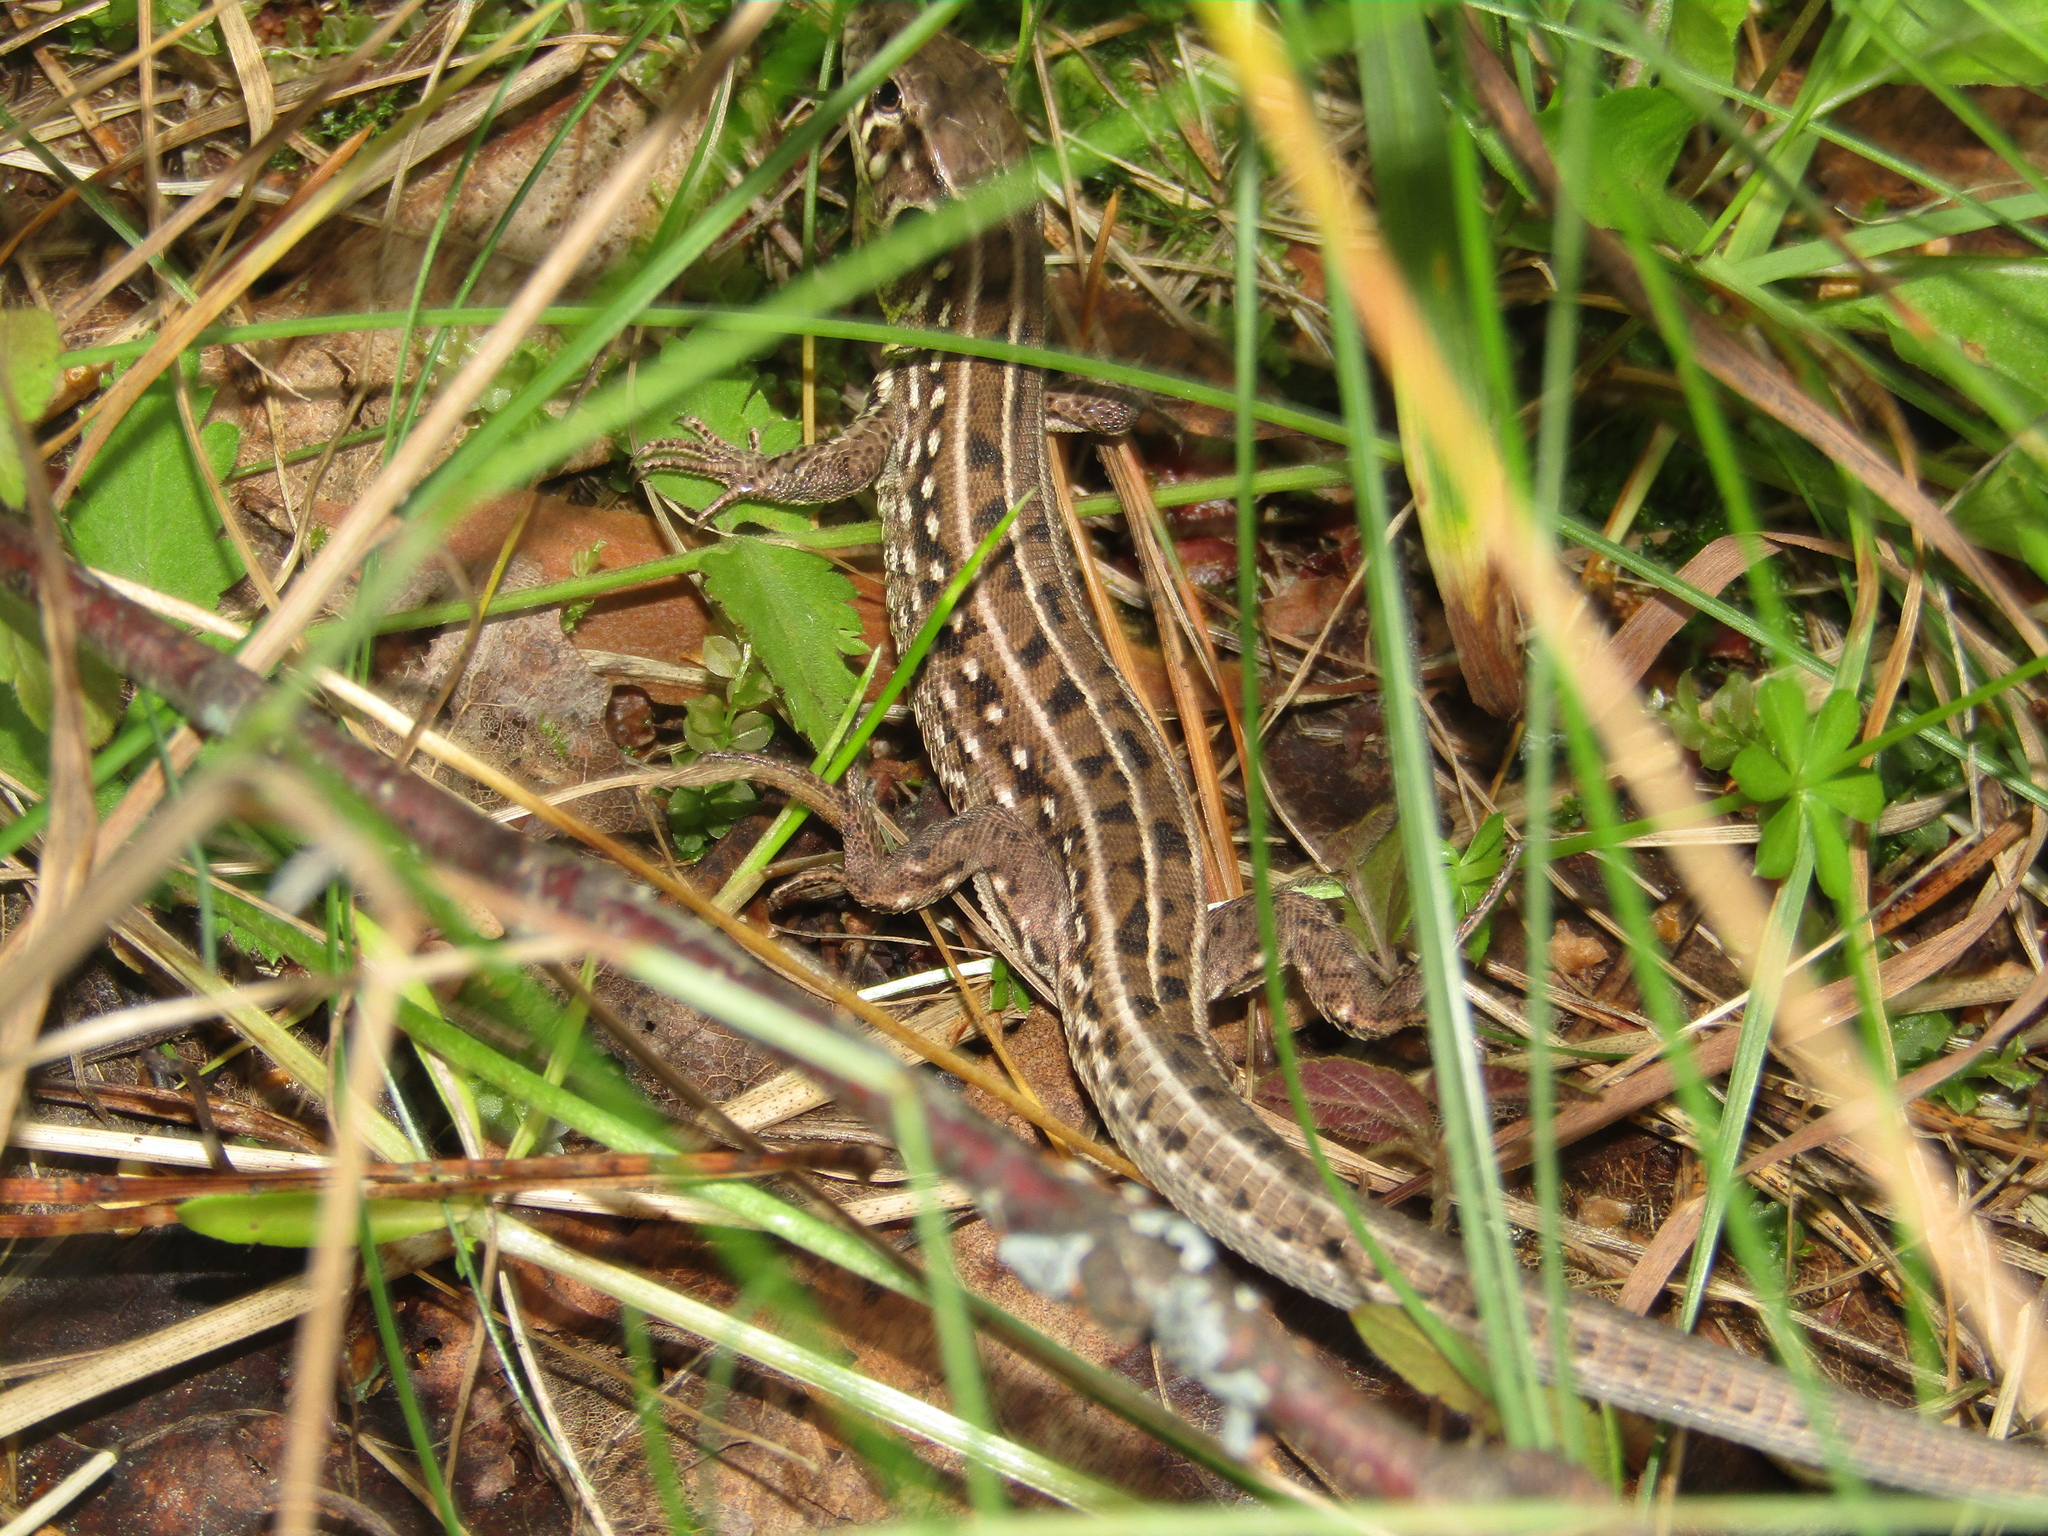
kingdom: Animalia
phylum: Chordata
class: Squamata
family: Lacertidae
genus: Lacerta
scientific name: Lacerta agilis
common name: Sand lizard
